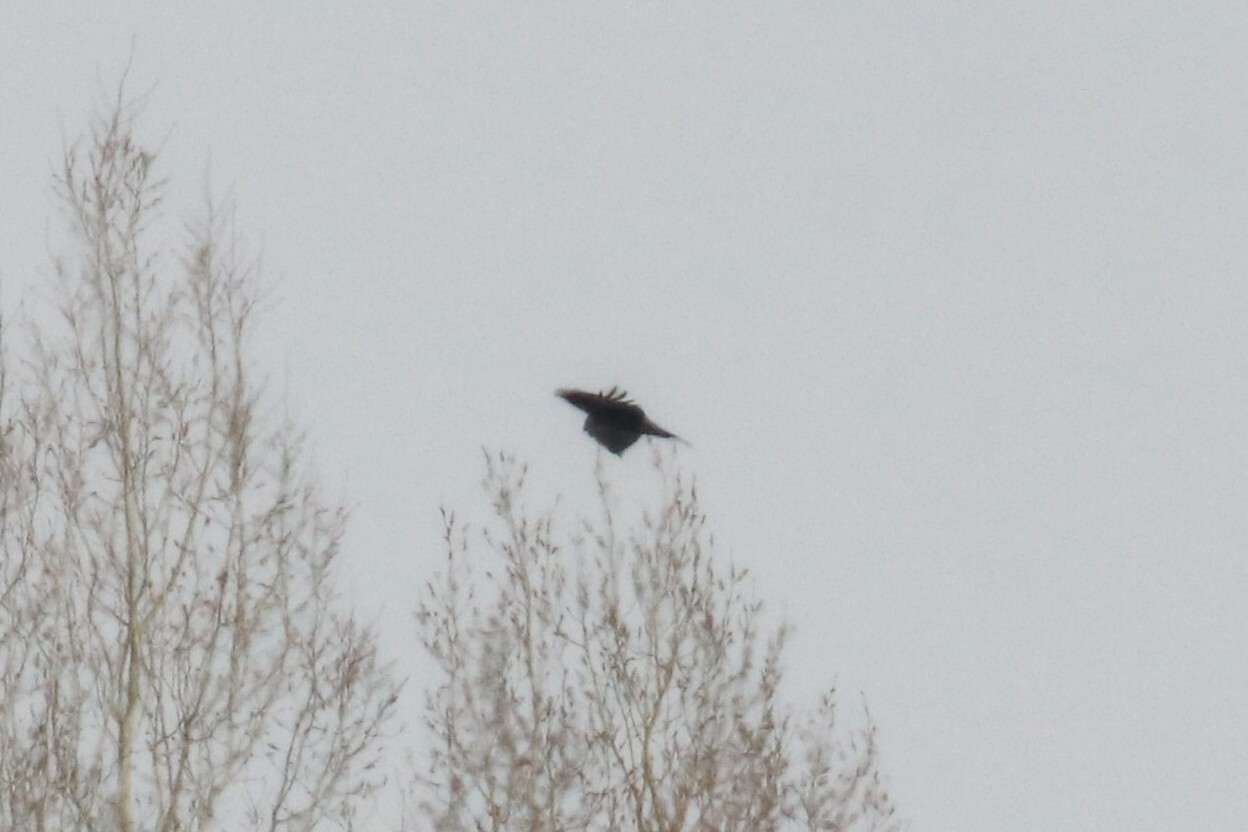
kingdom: Animalia
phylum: Chordata
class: Aves
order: Passeriformes
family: Corvidae
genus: Corvus
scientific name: Corvus corax
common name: Common raven
